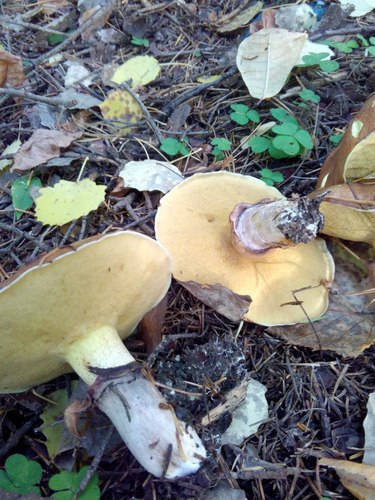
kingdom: Fungi
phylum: Basidiomycota
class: Agaricomycetes
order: Boletales
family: Suillaceae
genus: Suillus
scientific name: Suillus luteus
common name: Slippery jack
